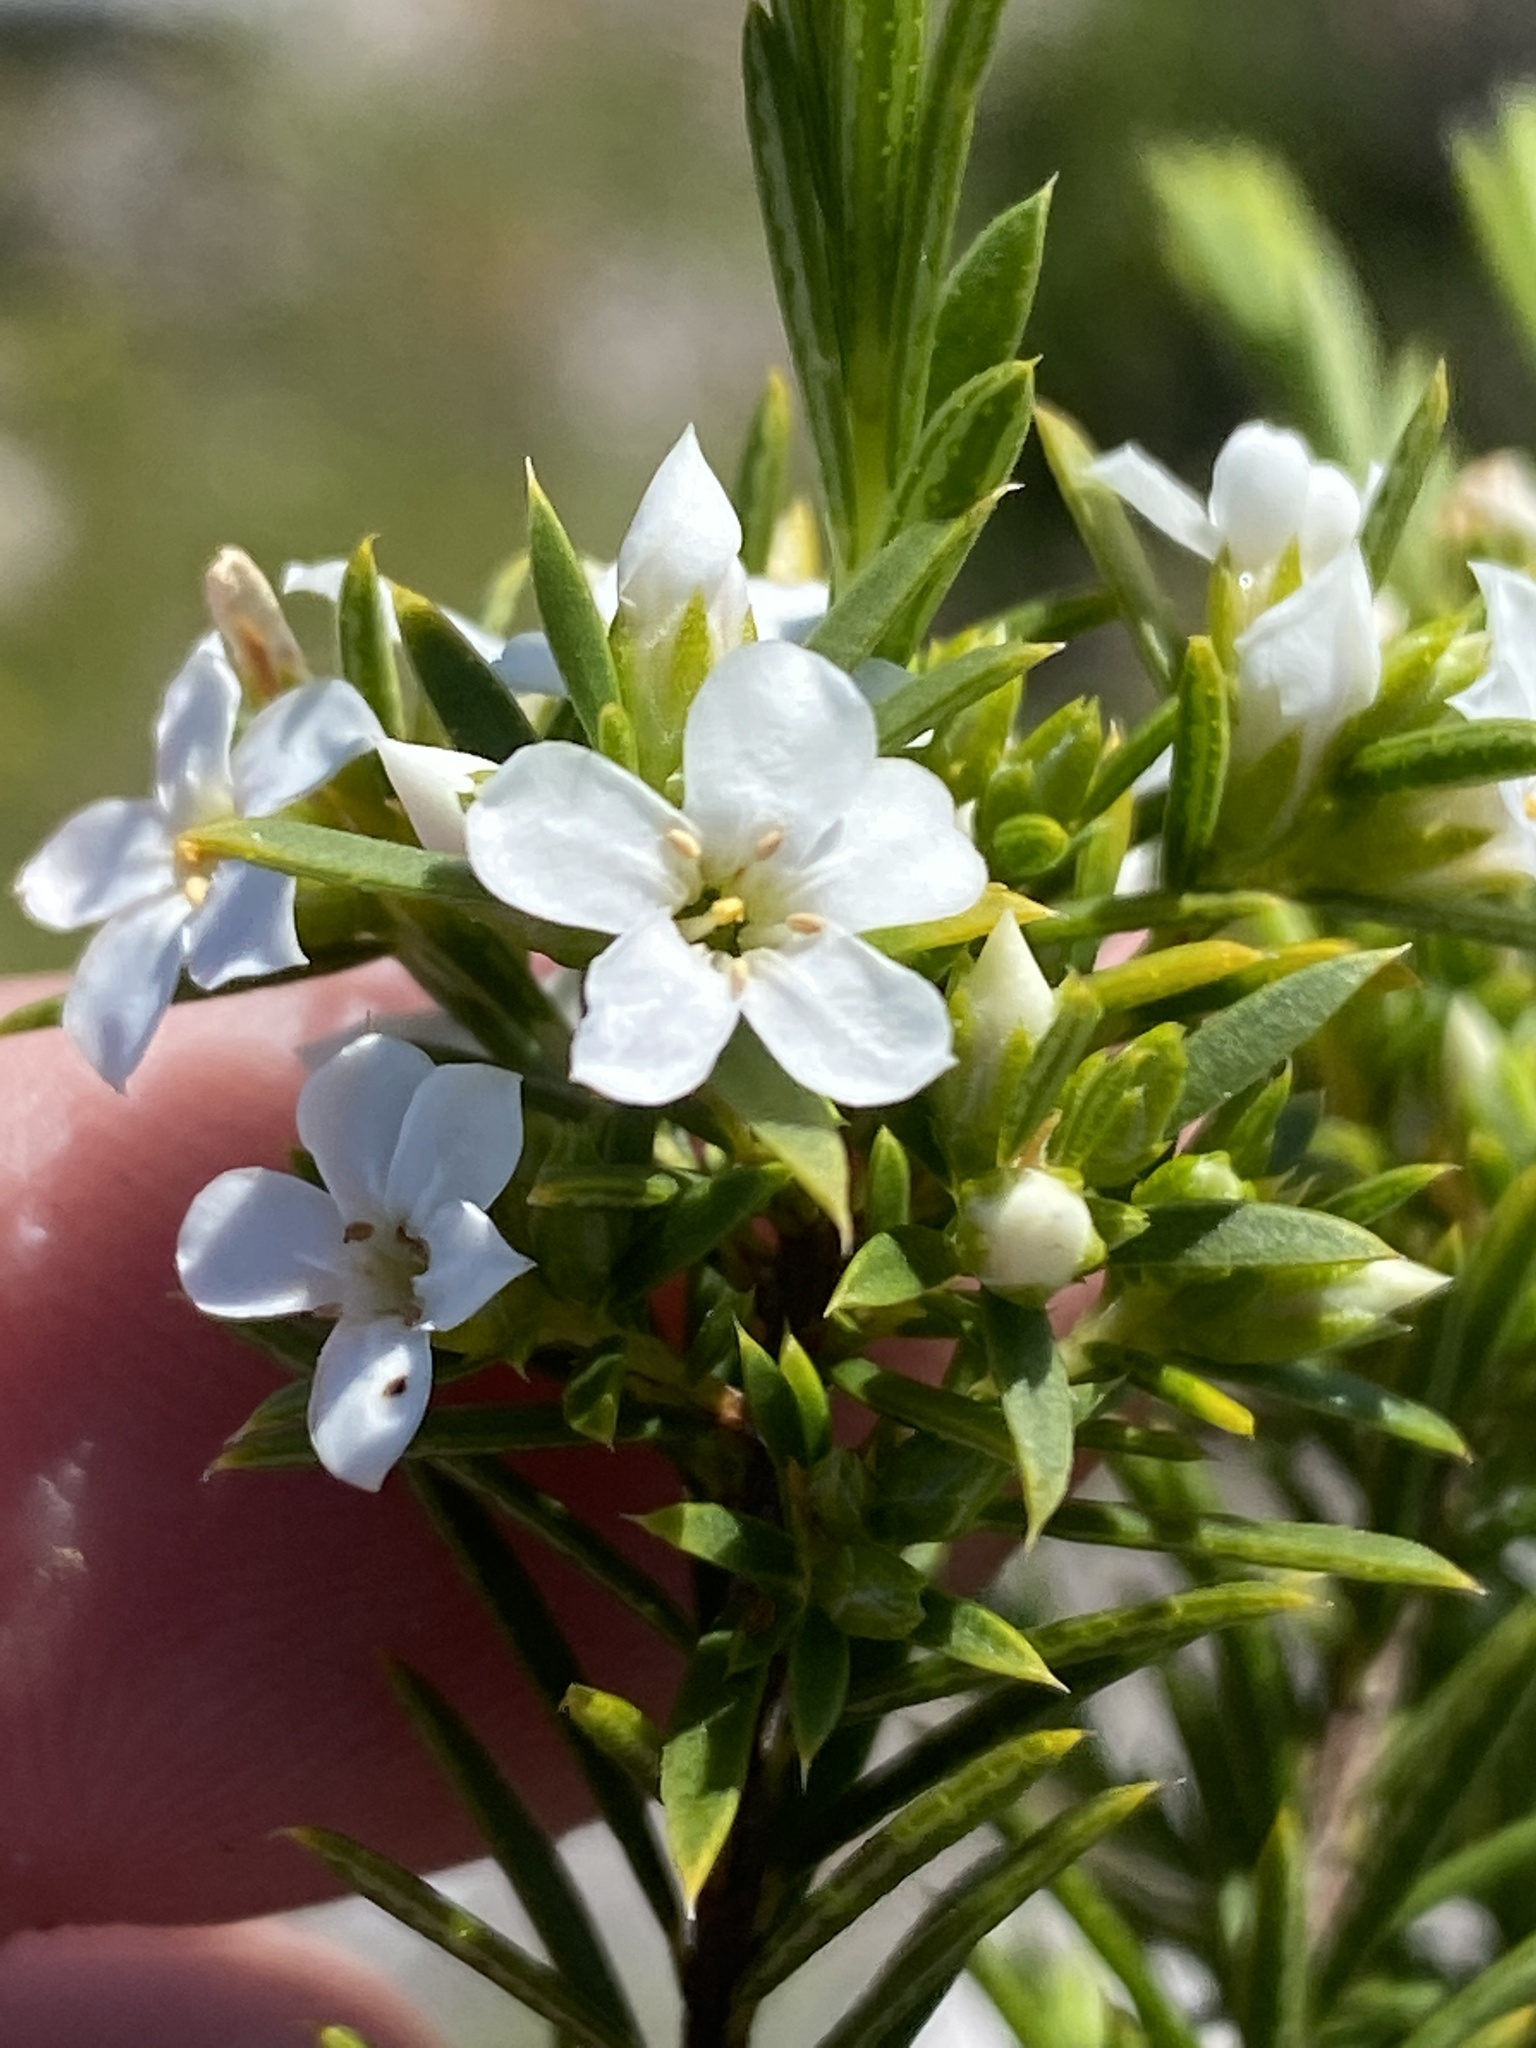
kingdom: Plantae
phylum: Tracheophyta
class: Magnoliopsida
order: Sapindales
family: Rutaceae
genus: Coleonema
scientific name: Coleonema album
